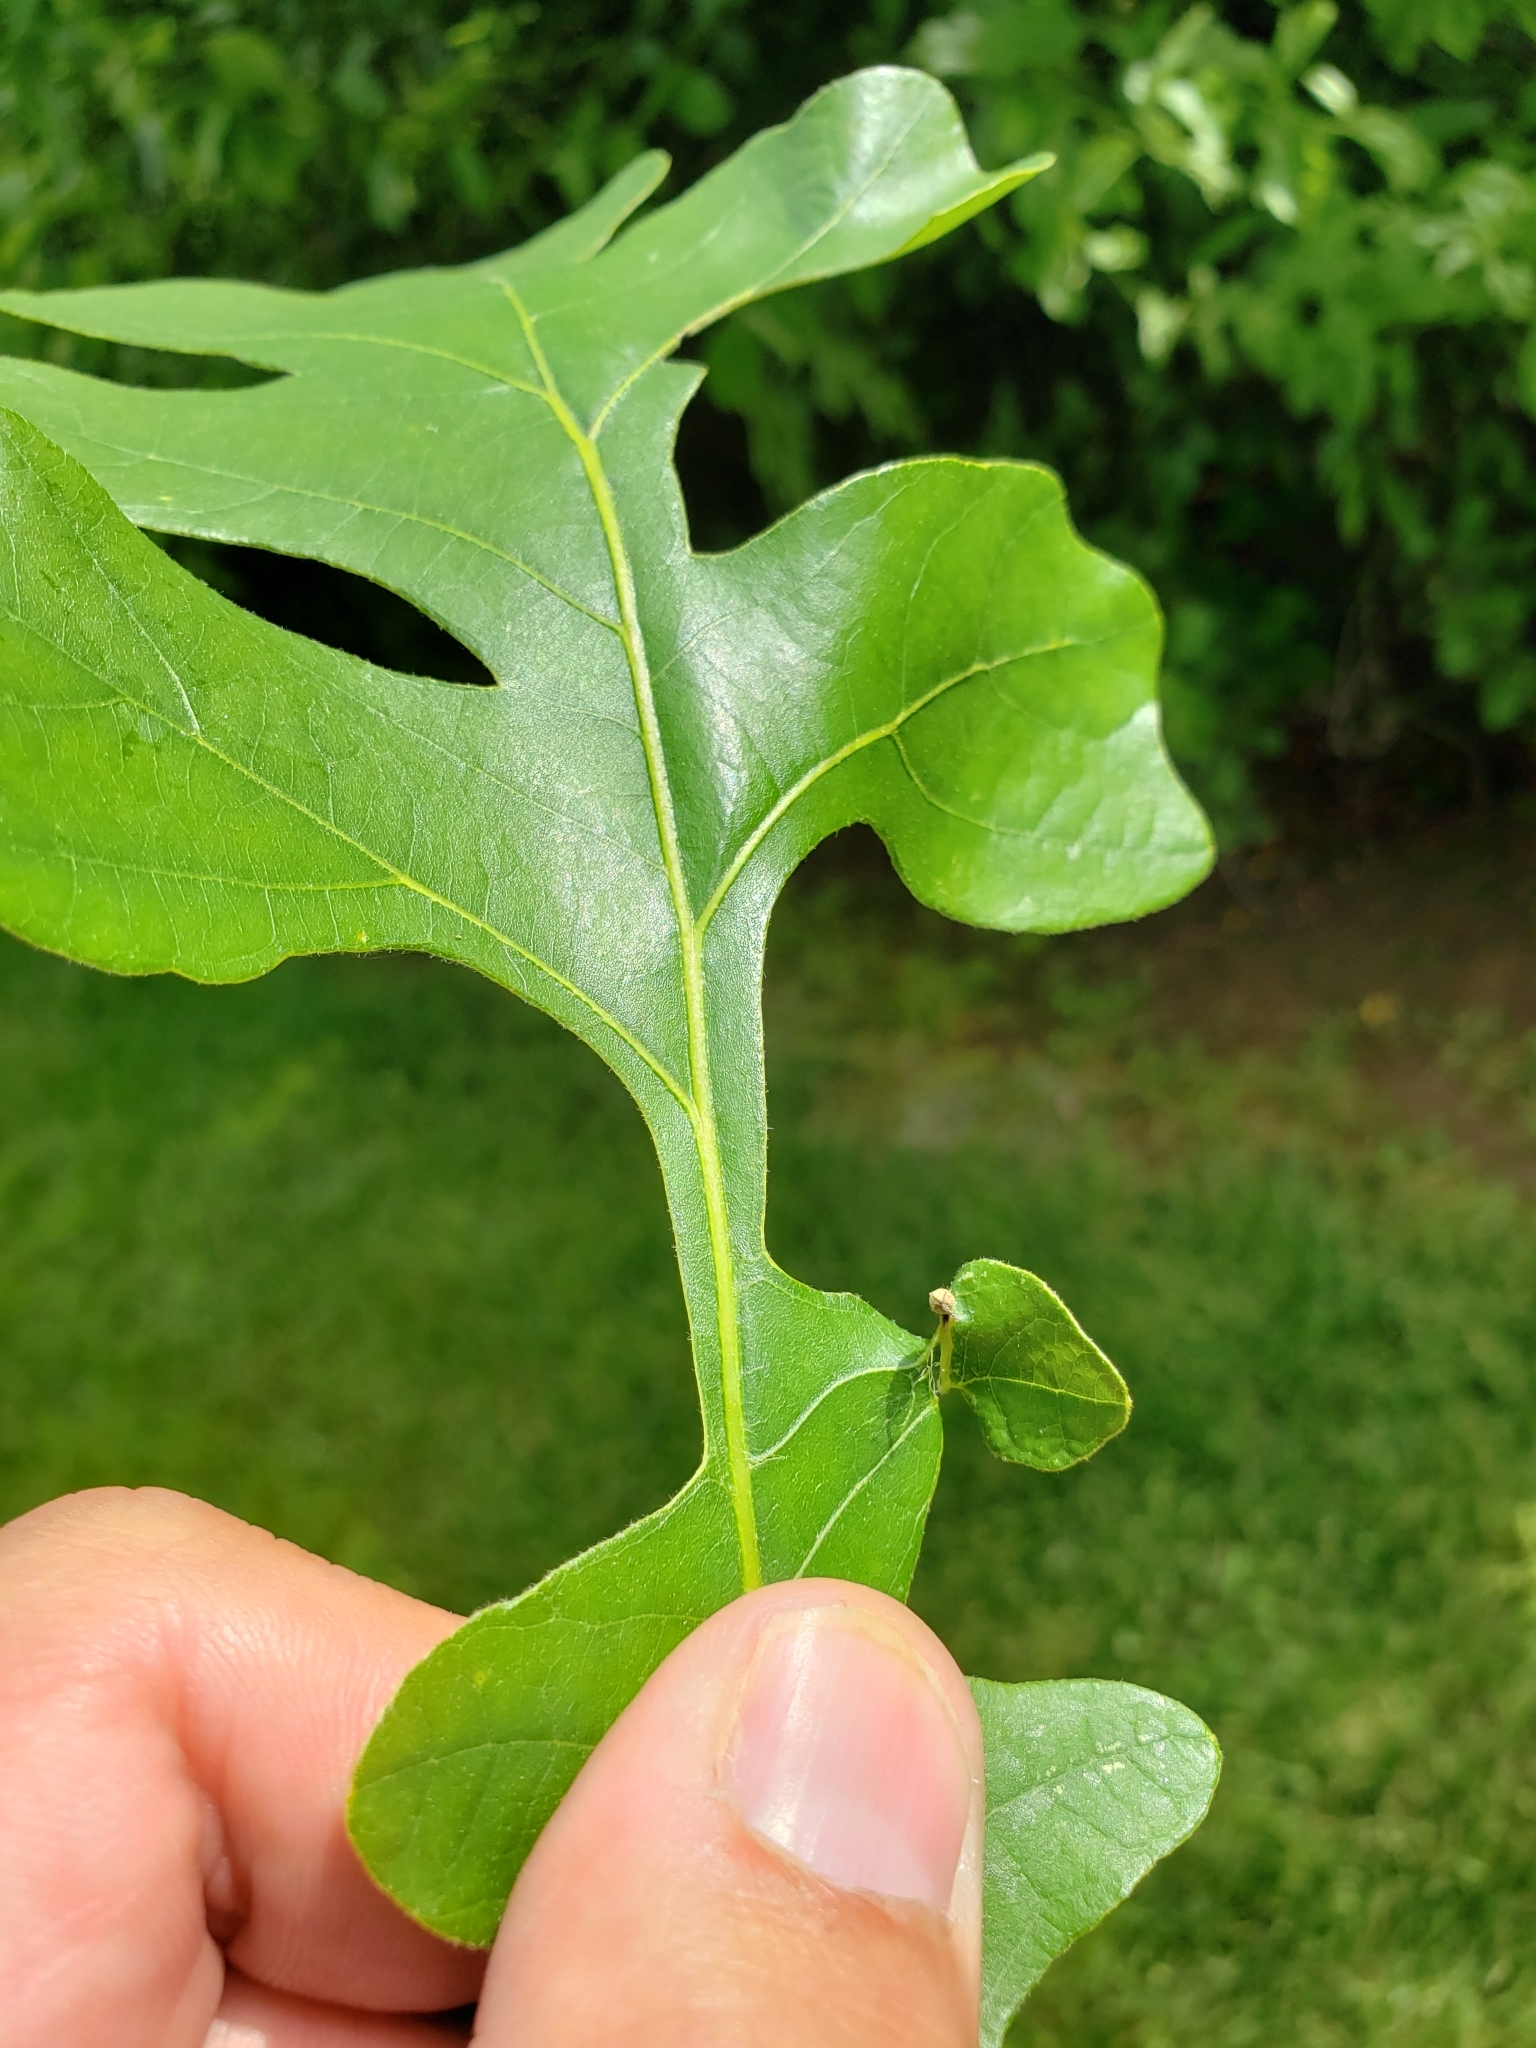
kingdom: Animalia
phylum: Arthropoda
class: Insecta
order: Hymenoptera
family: Cynipidae
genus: Andricus
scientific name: Andricus
